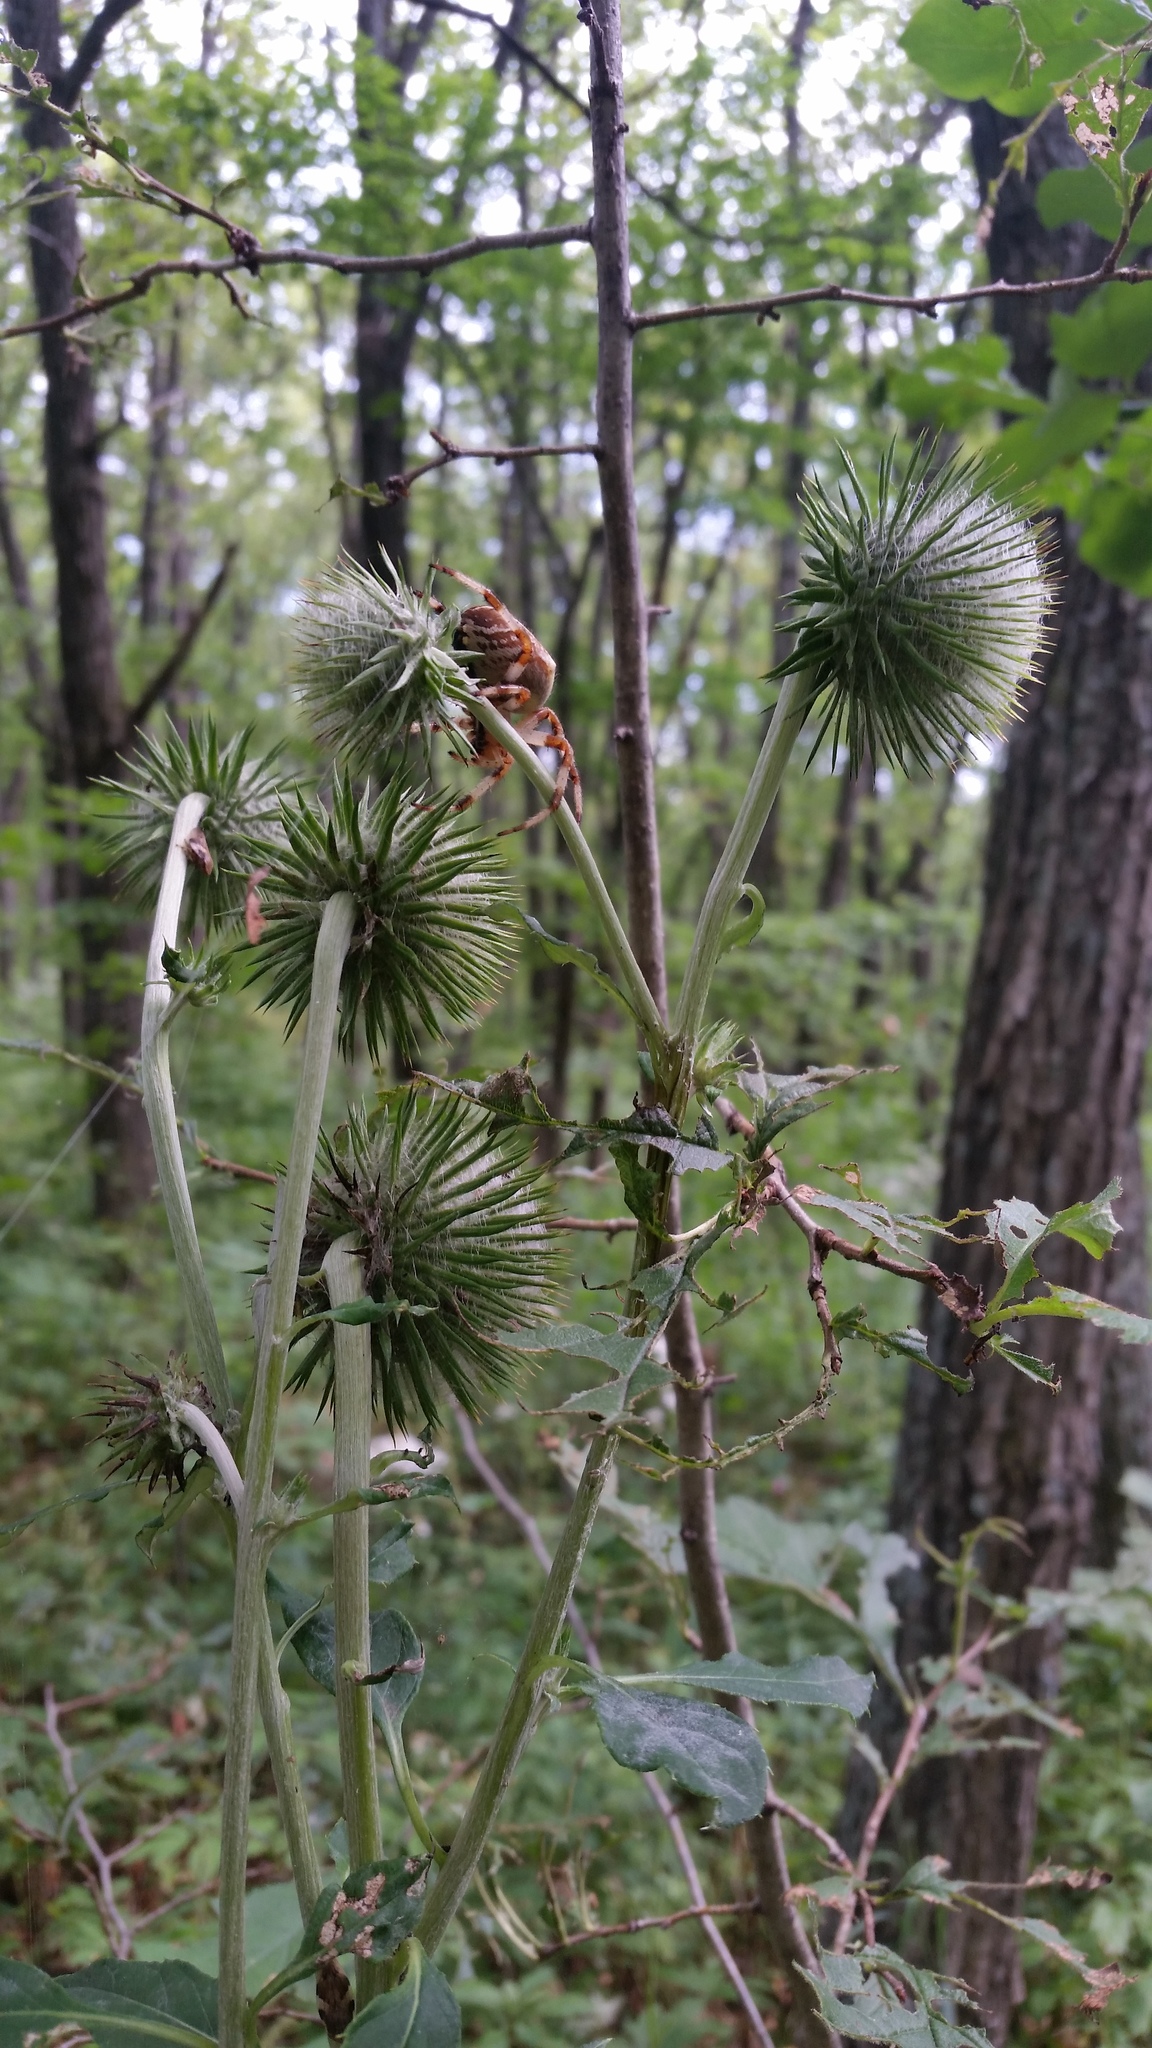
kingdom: Plantae
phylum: Tracheophyta
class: Magnoliopsida
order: Asterales
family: Asteraceae
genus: Synurus
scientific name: Synurus deltoides
